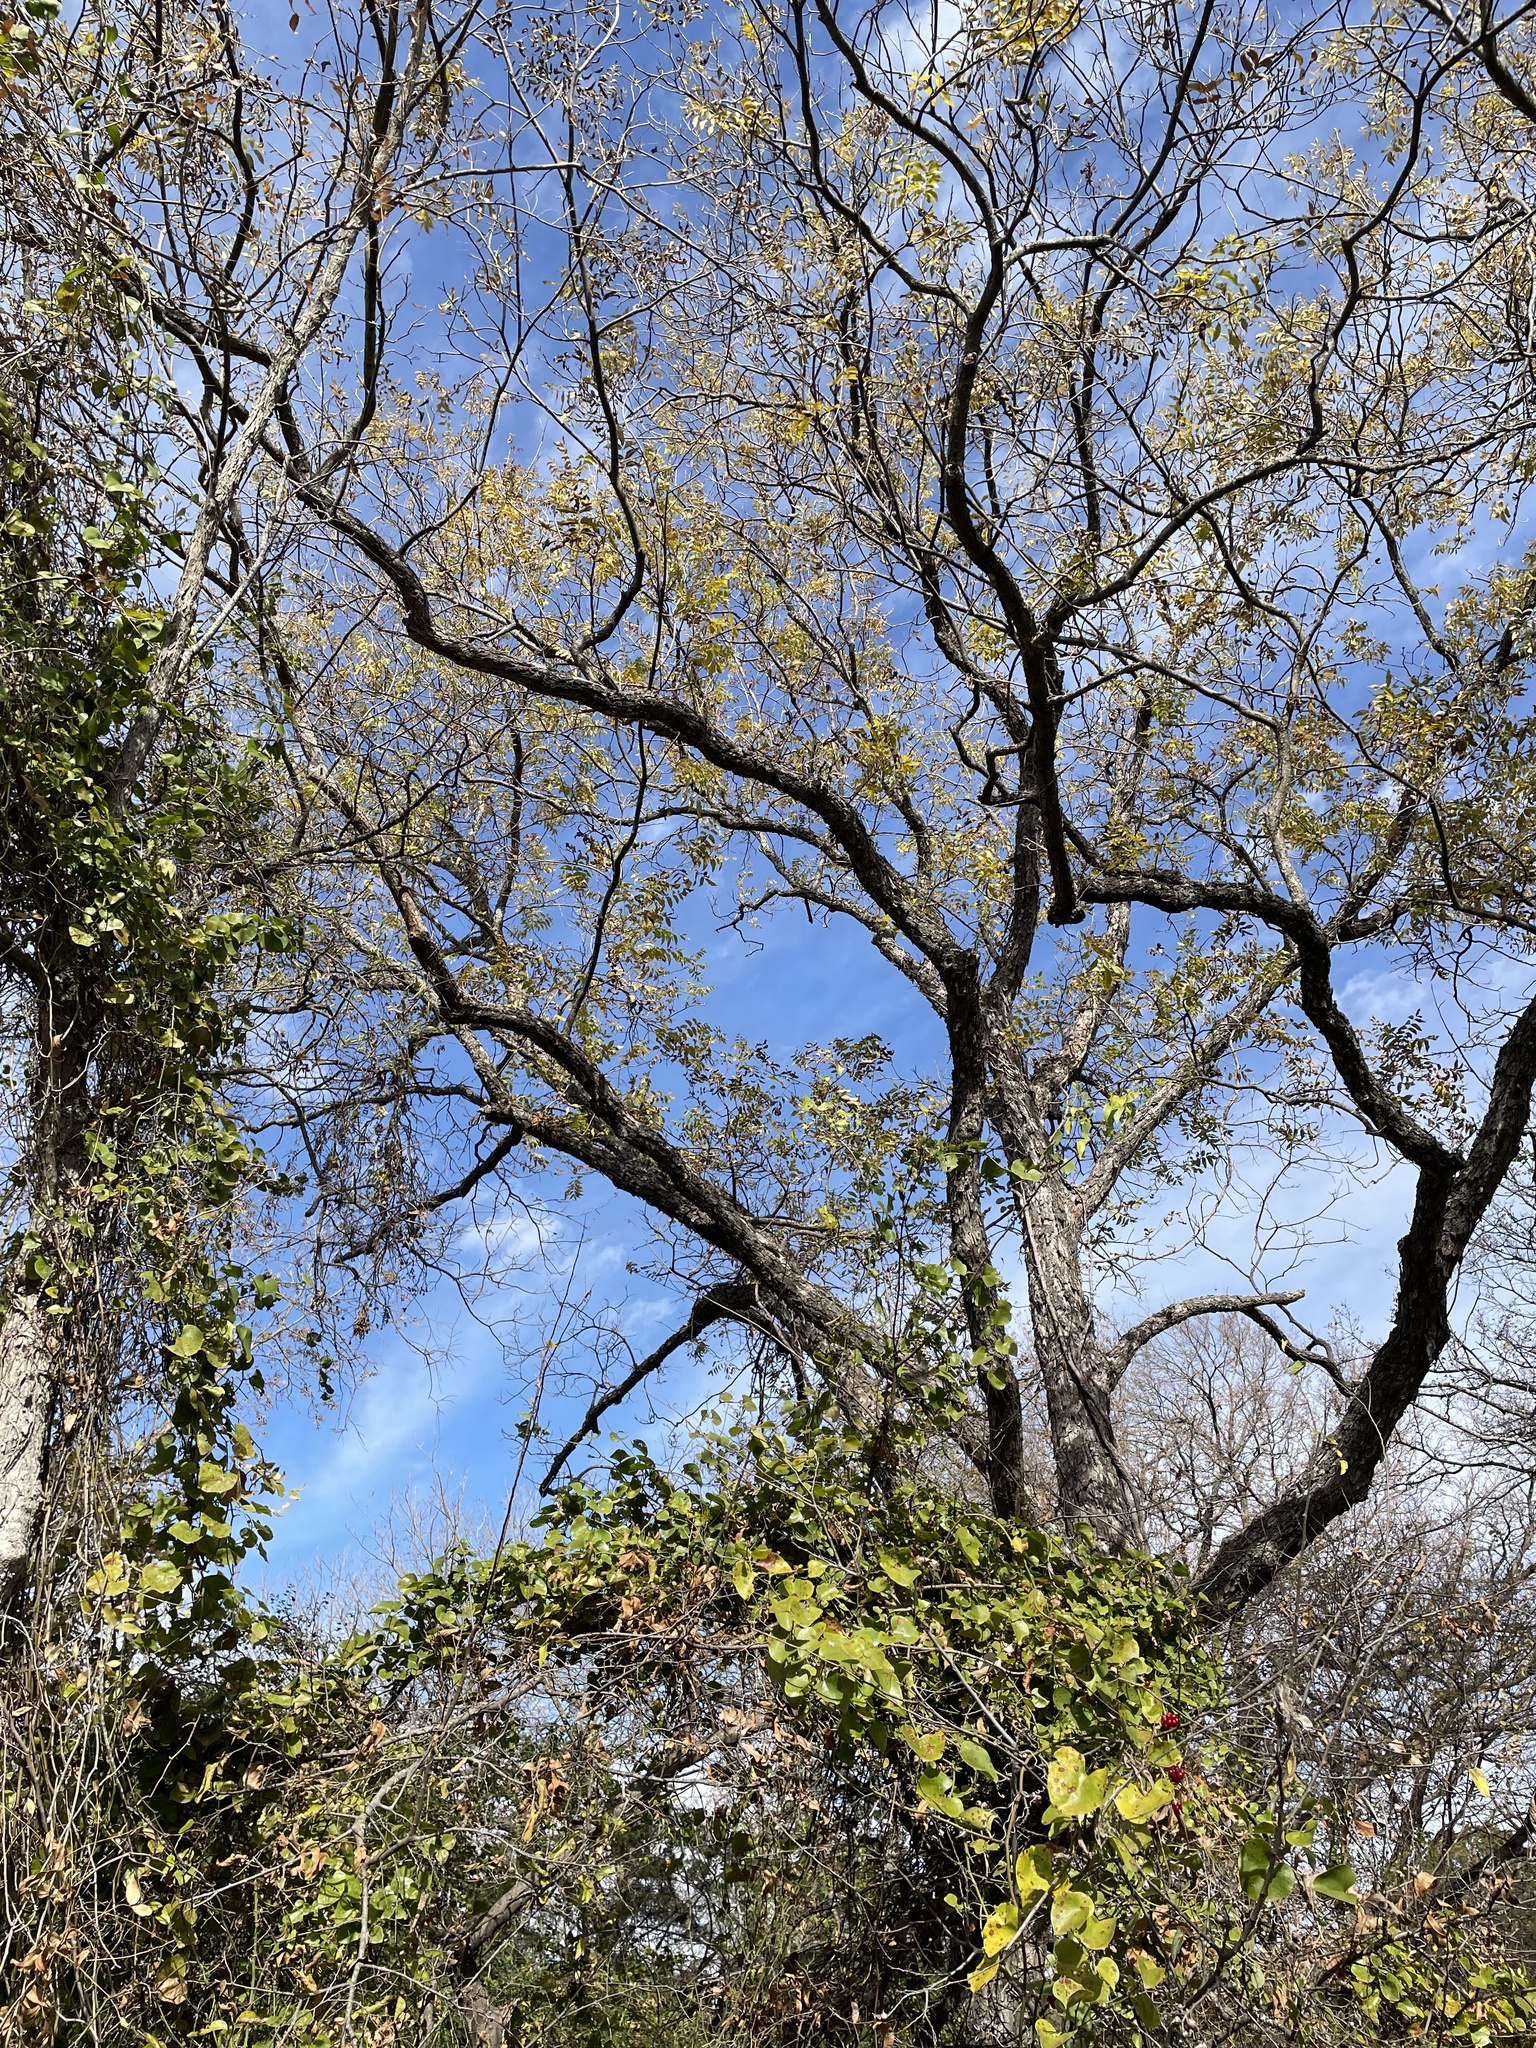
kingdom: Plantae
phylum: Tracheophyta
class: Magnoliopsida
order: Fagales
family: Juglandaceae
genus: Carya
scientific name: Carya illinoinensis
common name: Pecan
